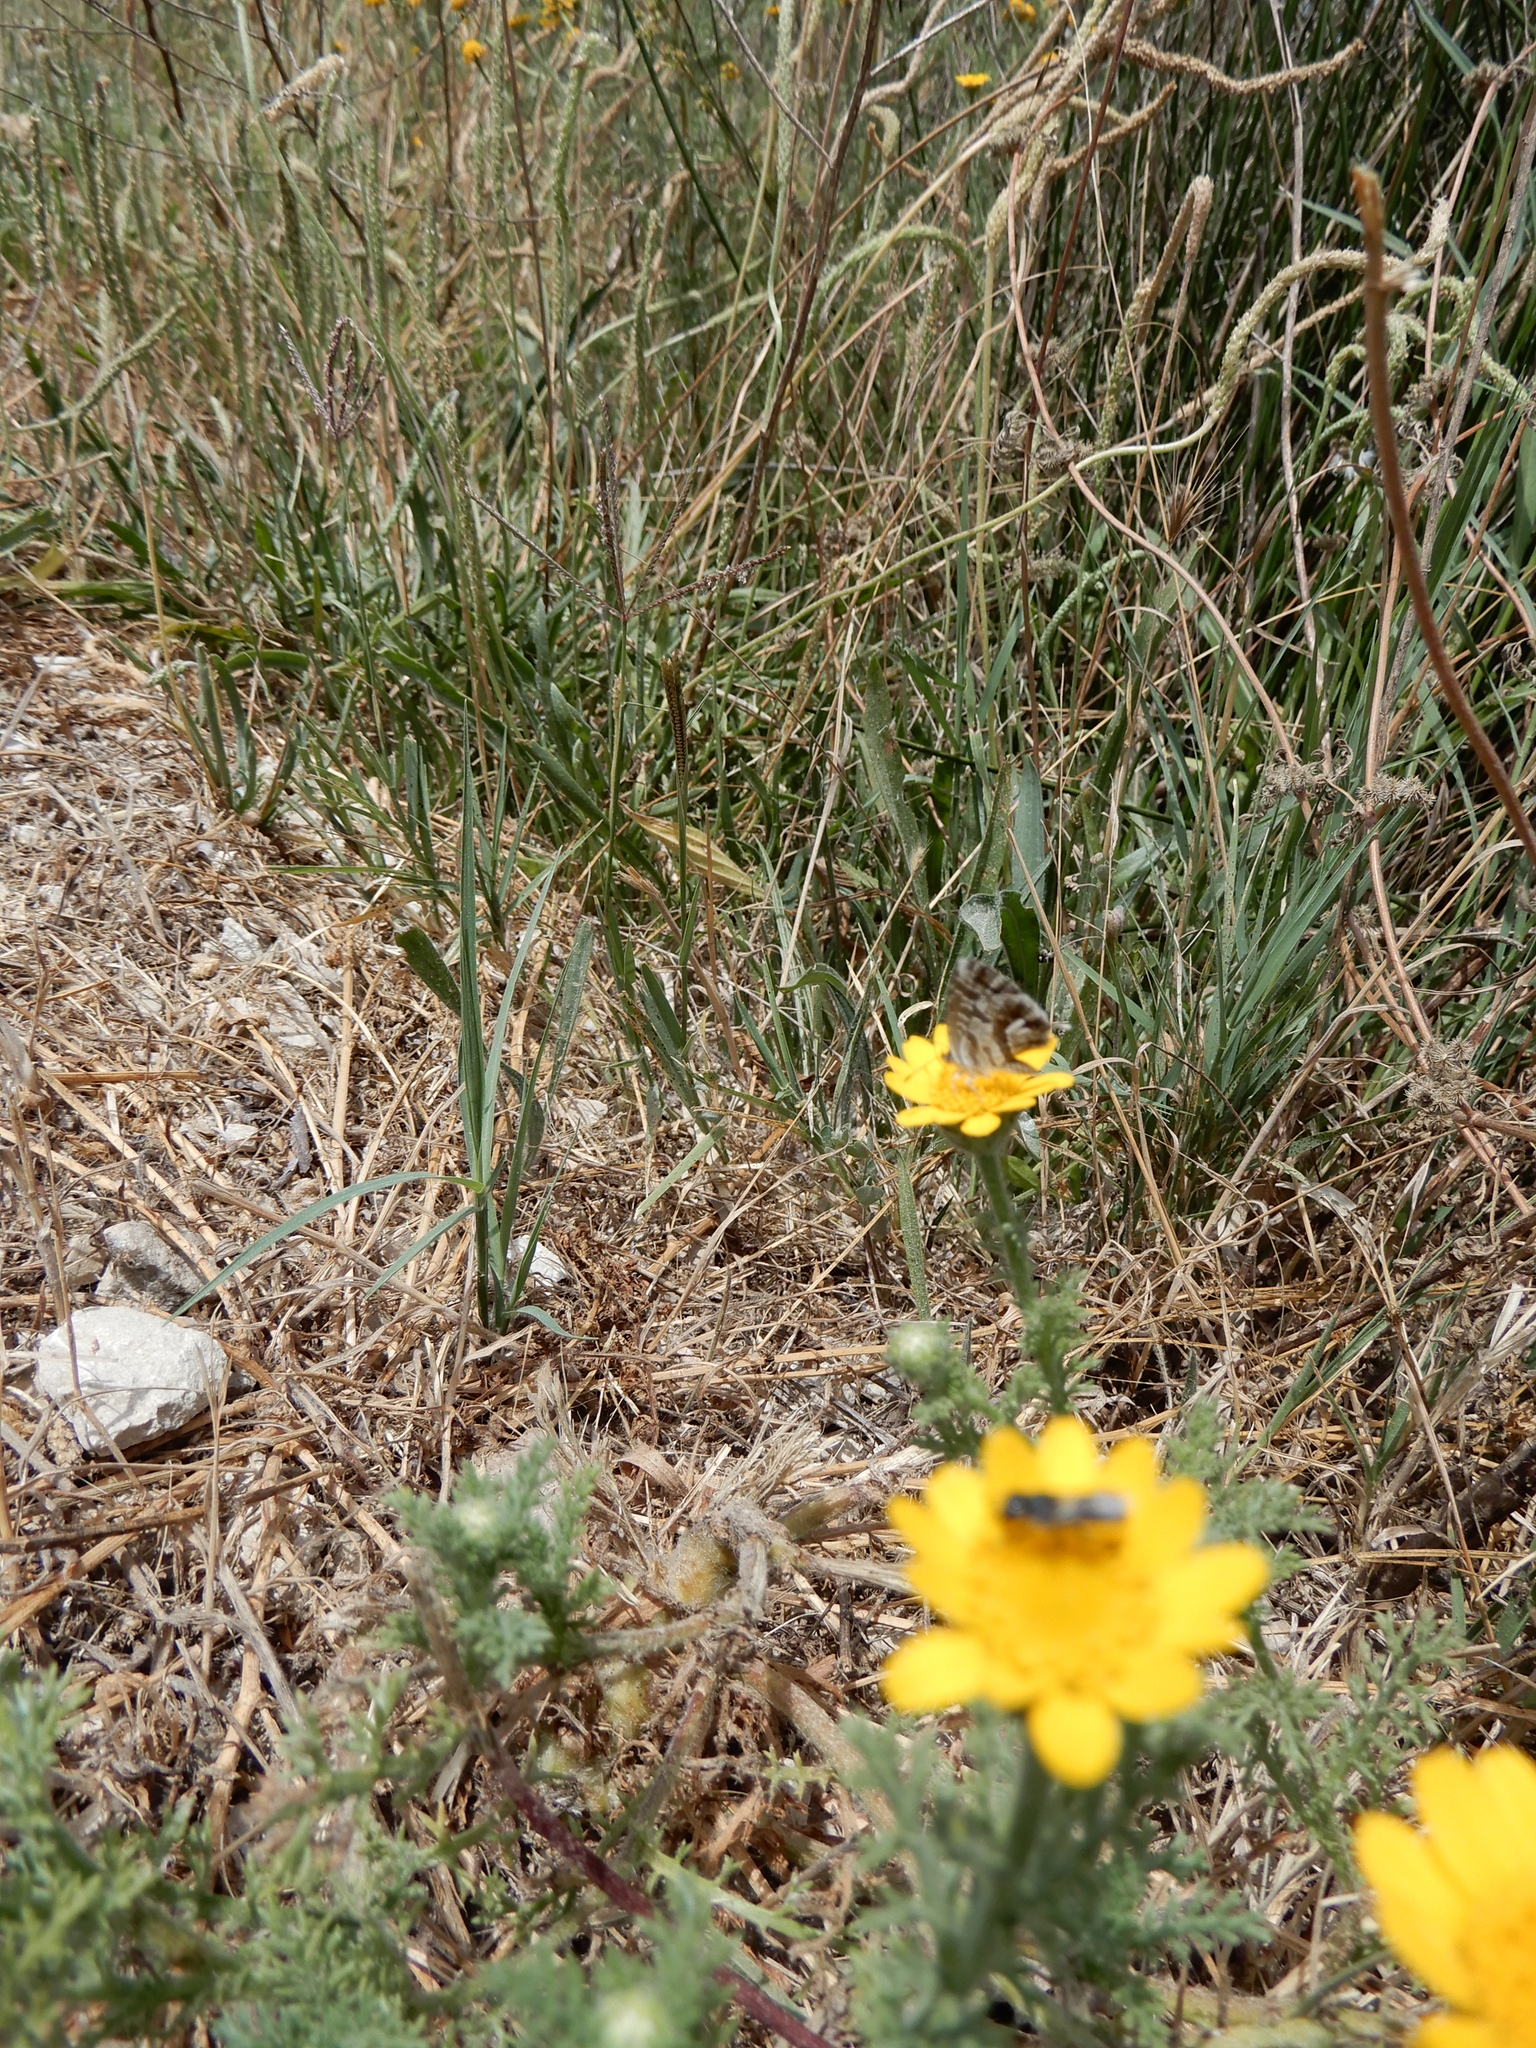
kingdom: Animalia
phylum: Arthropoda
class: Insecta
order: Lepidoptera
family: Lycaenidae
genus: Cacyreus
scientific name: Cacyreus marshalli
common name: Geranium bronze
